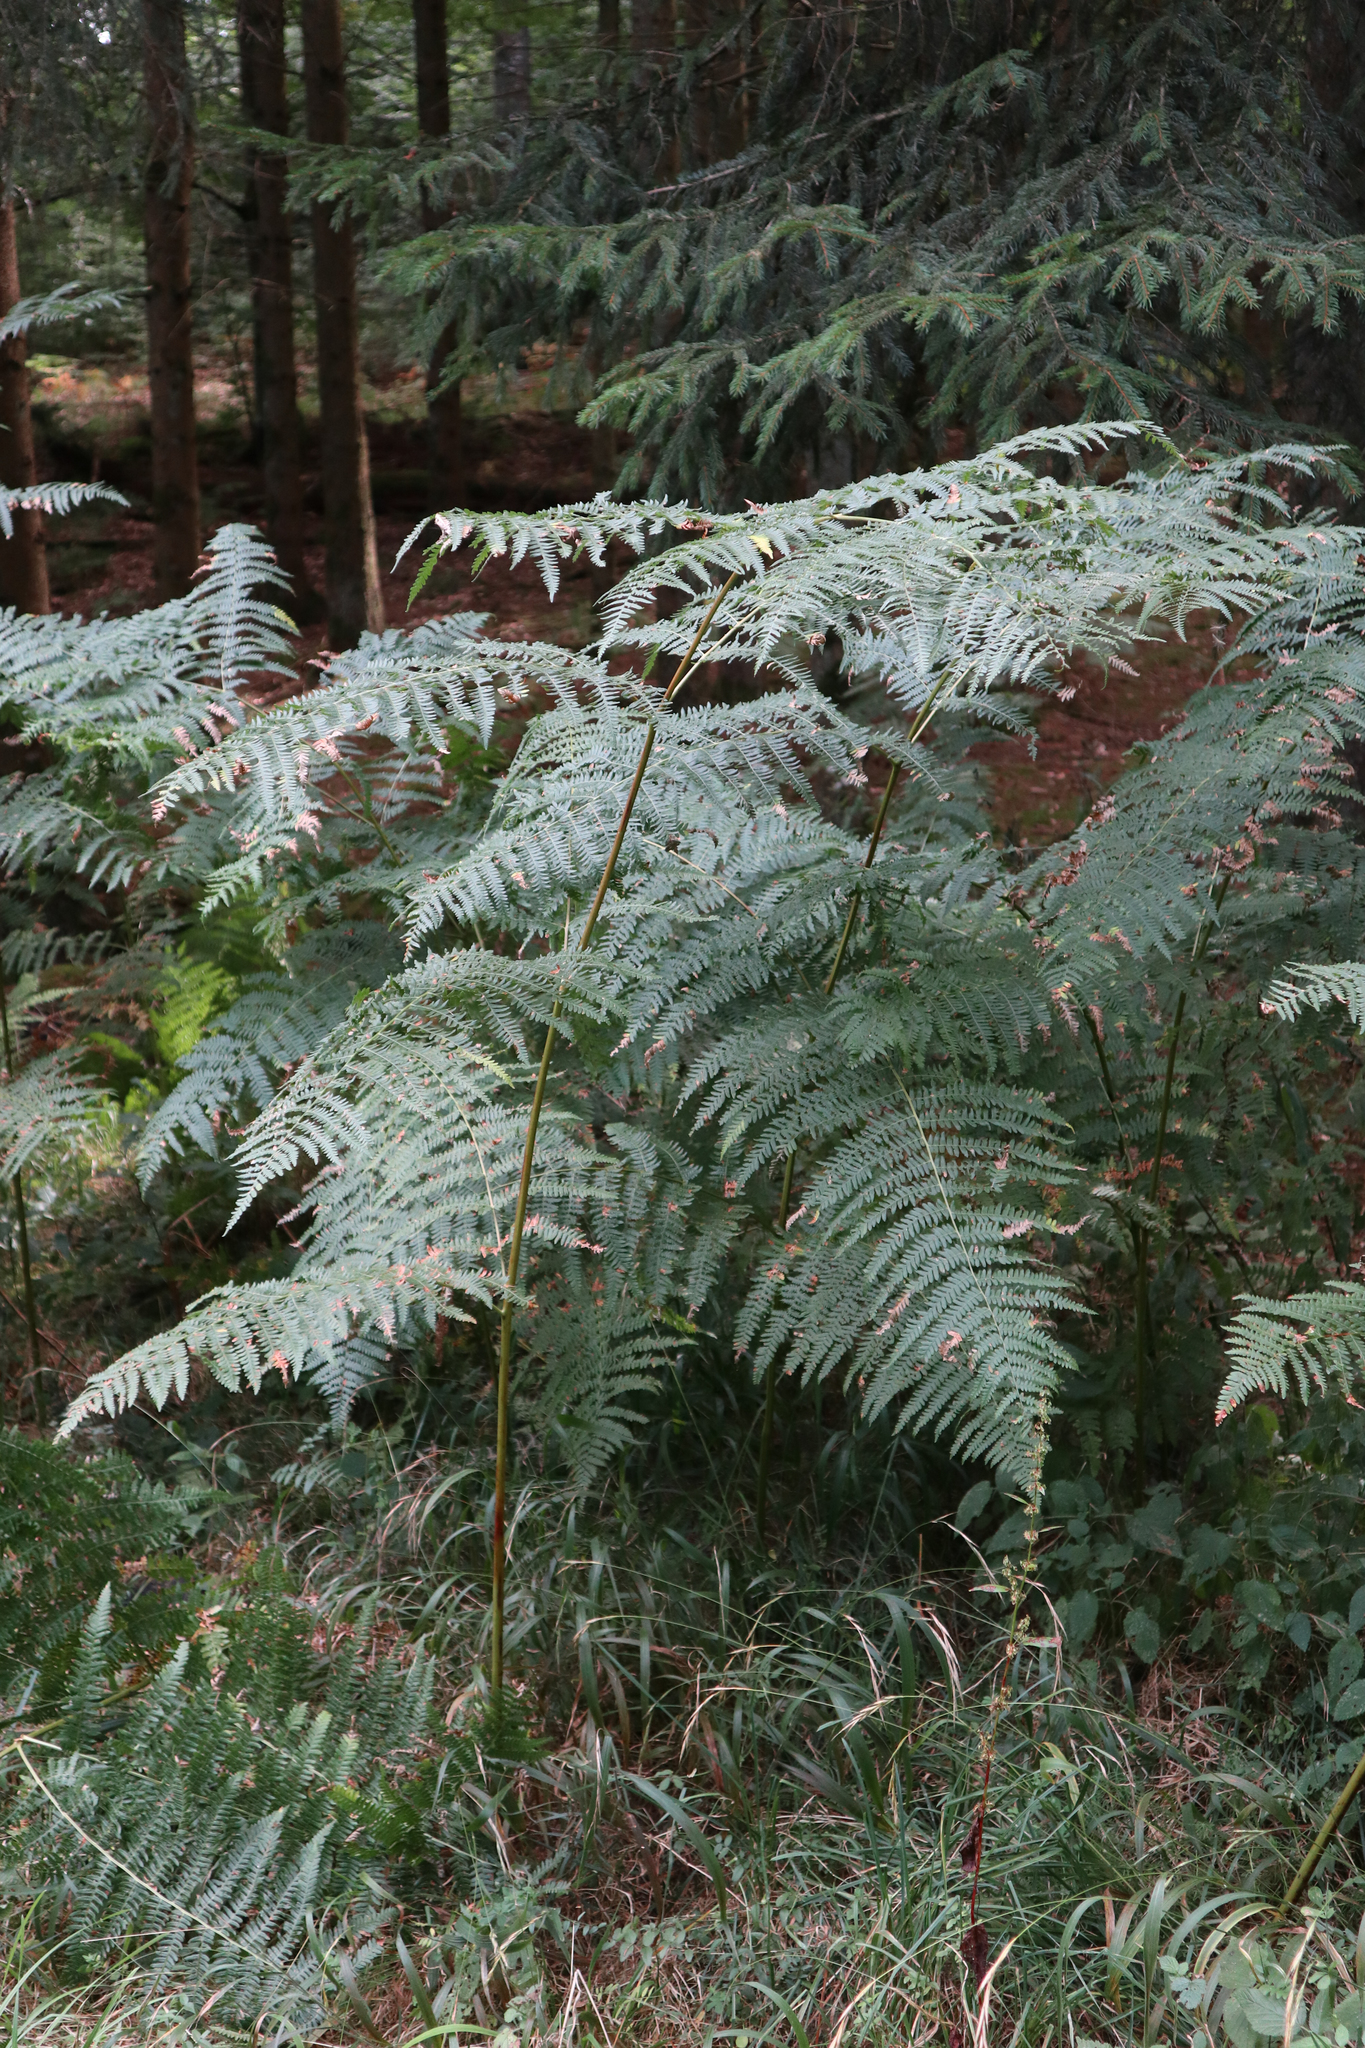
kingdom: Plantae
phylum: Tracheophyta
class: Polypodiopsida
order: Polypodiales
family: Dennstaedtiaceae
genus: Pteridium
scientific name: Pteridium aquilinum
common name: Bracken
